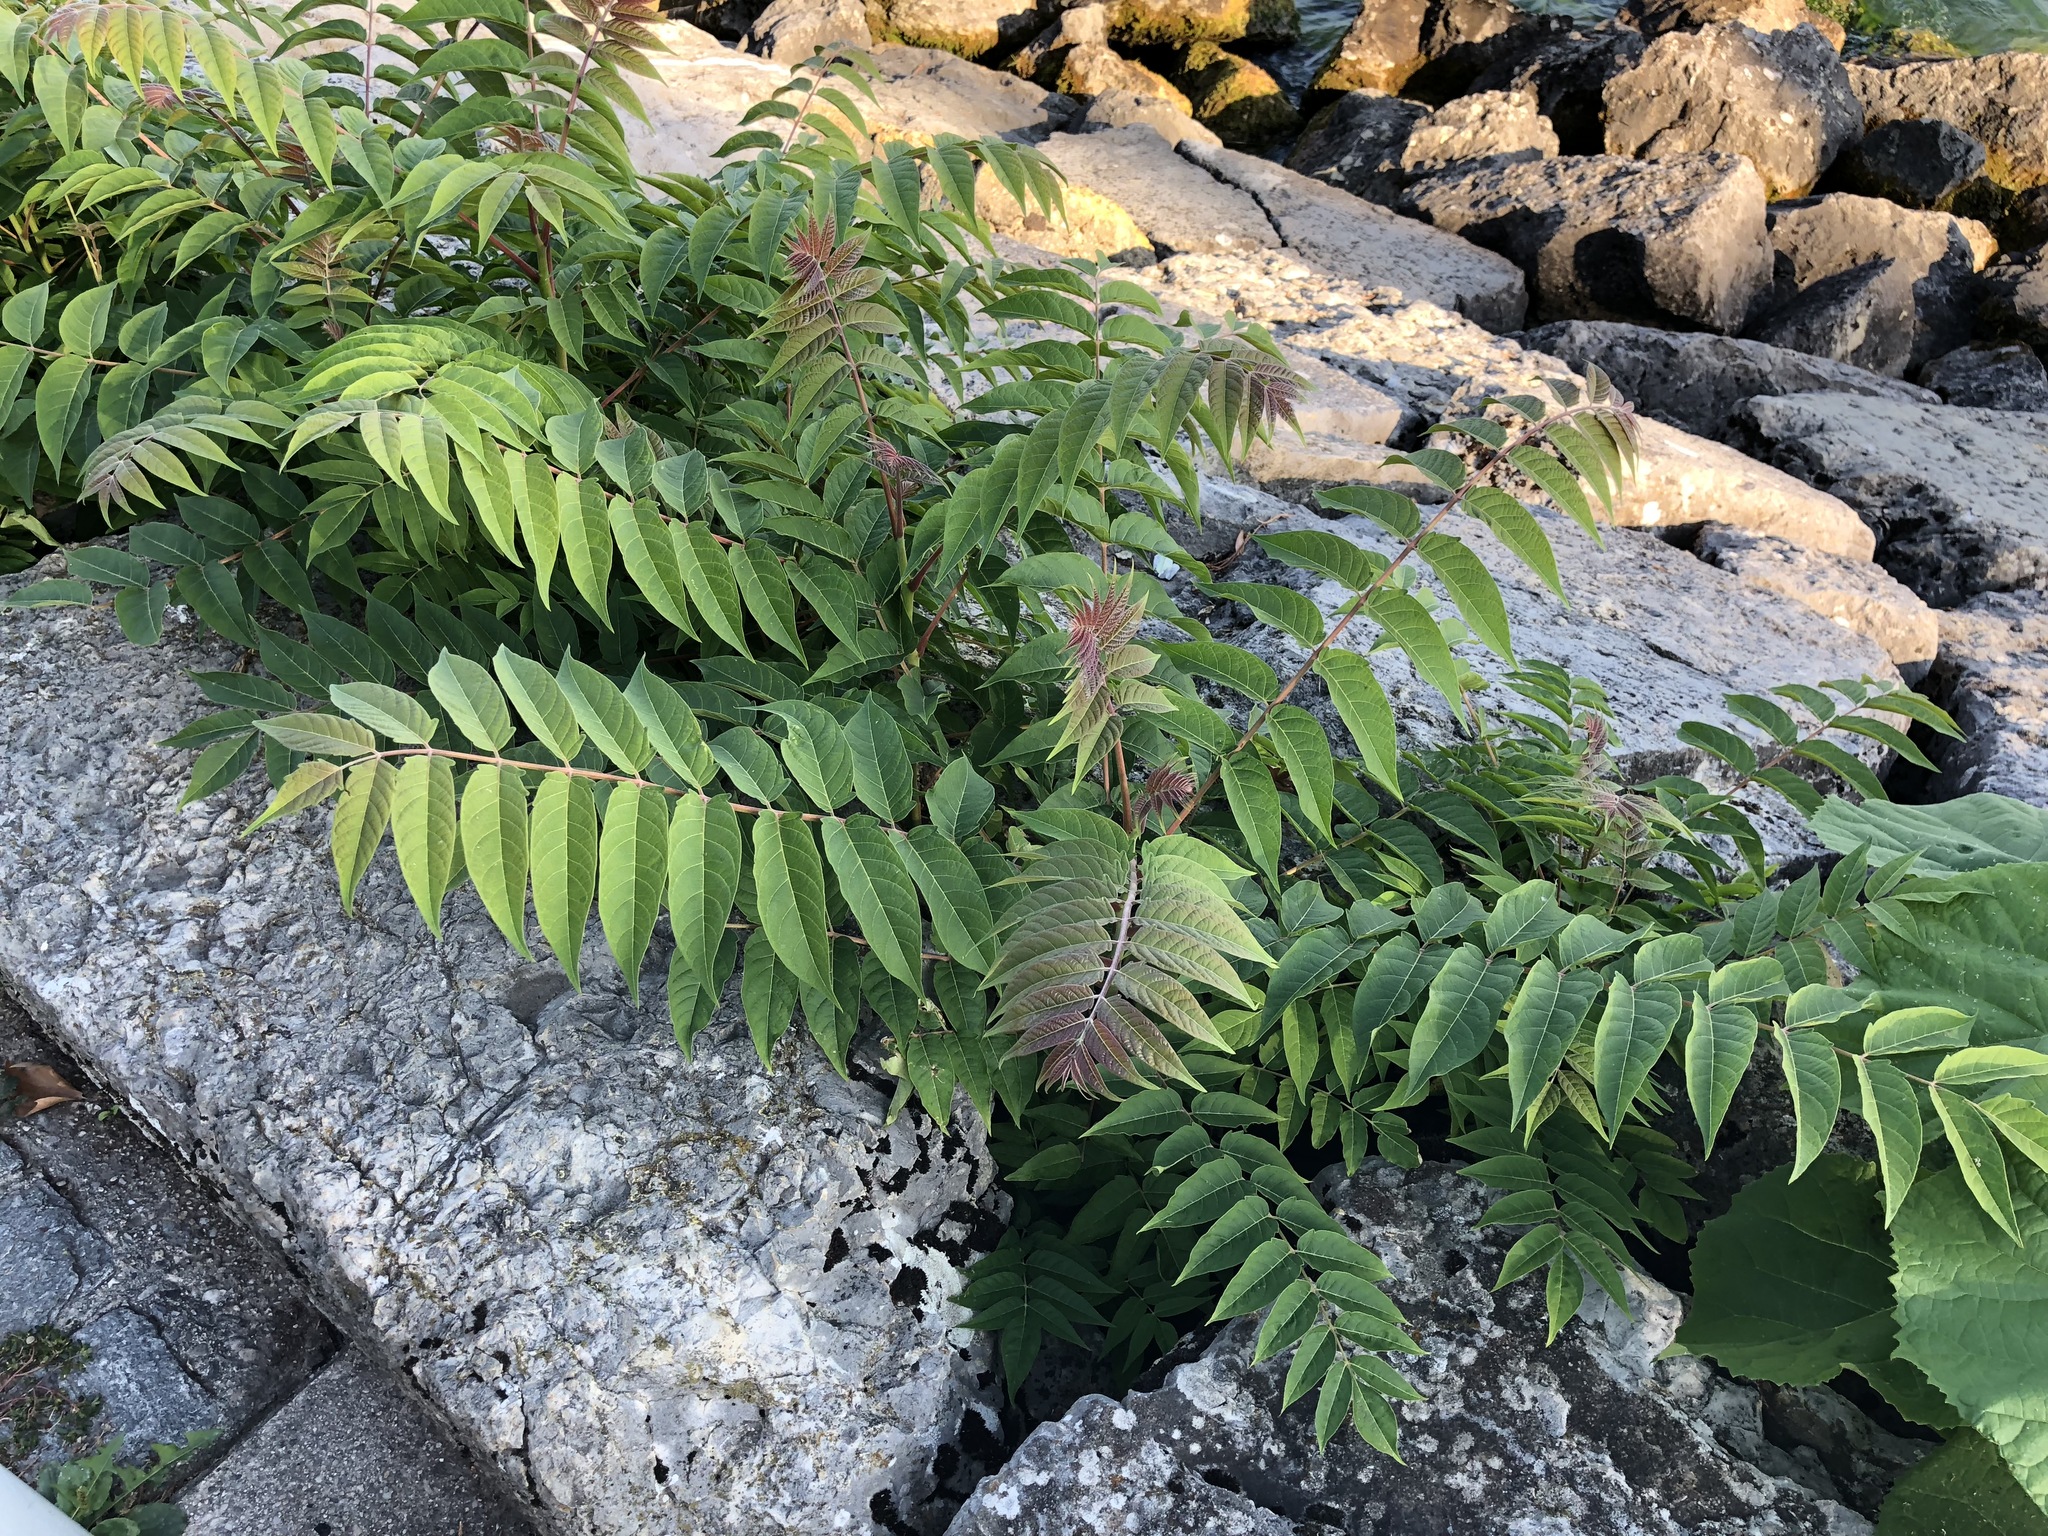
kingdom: Plantae
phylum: Tracheophyta
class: Magnoliopsida
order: Sapindales
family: Simaroubaceae
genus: Ailanthus
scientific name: Ailanthus altissima
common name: Tree-of-heaven
